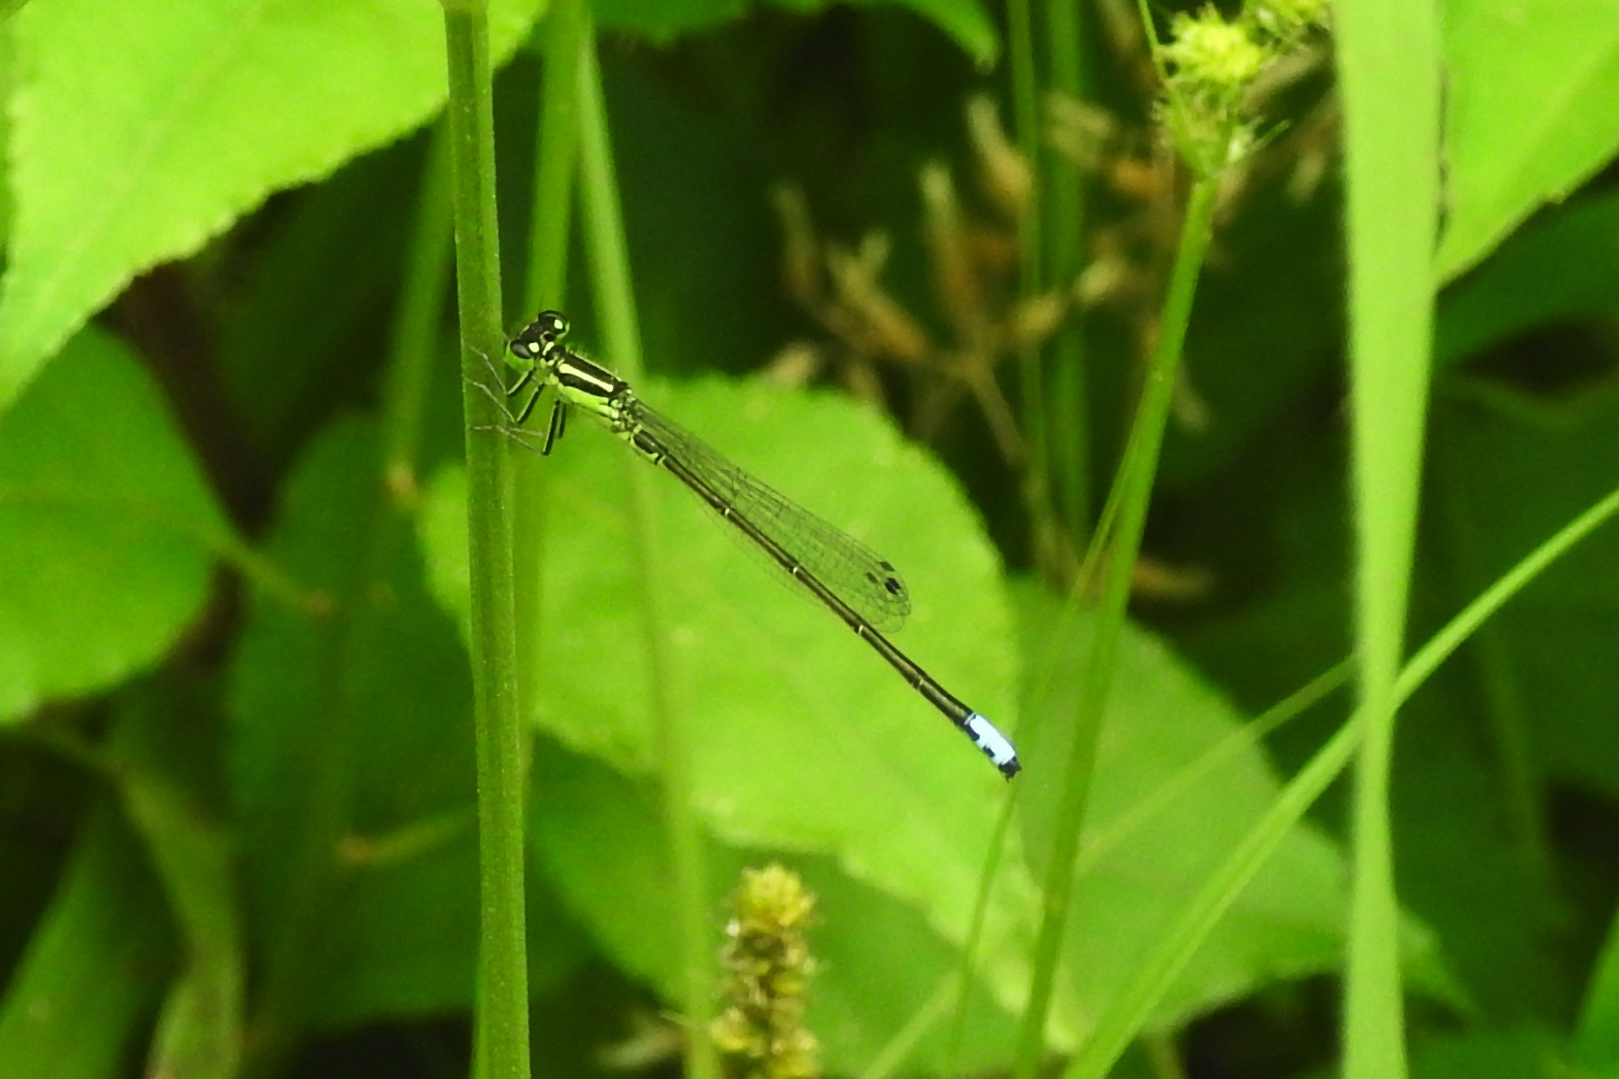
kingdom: Animalia
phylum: Arthropoda
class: Insecta
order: Odonata
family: Coenagrionidae
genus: Ischnura
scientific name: Ischnura verticalis
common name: Eastern forktail
